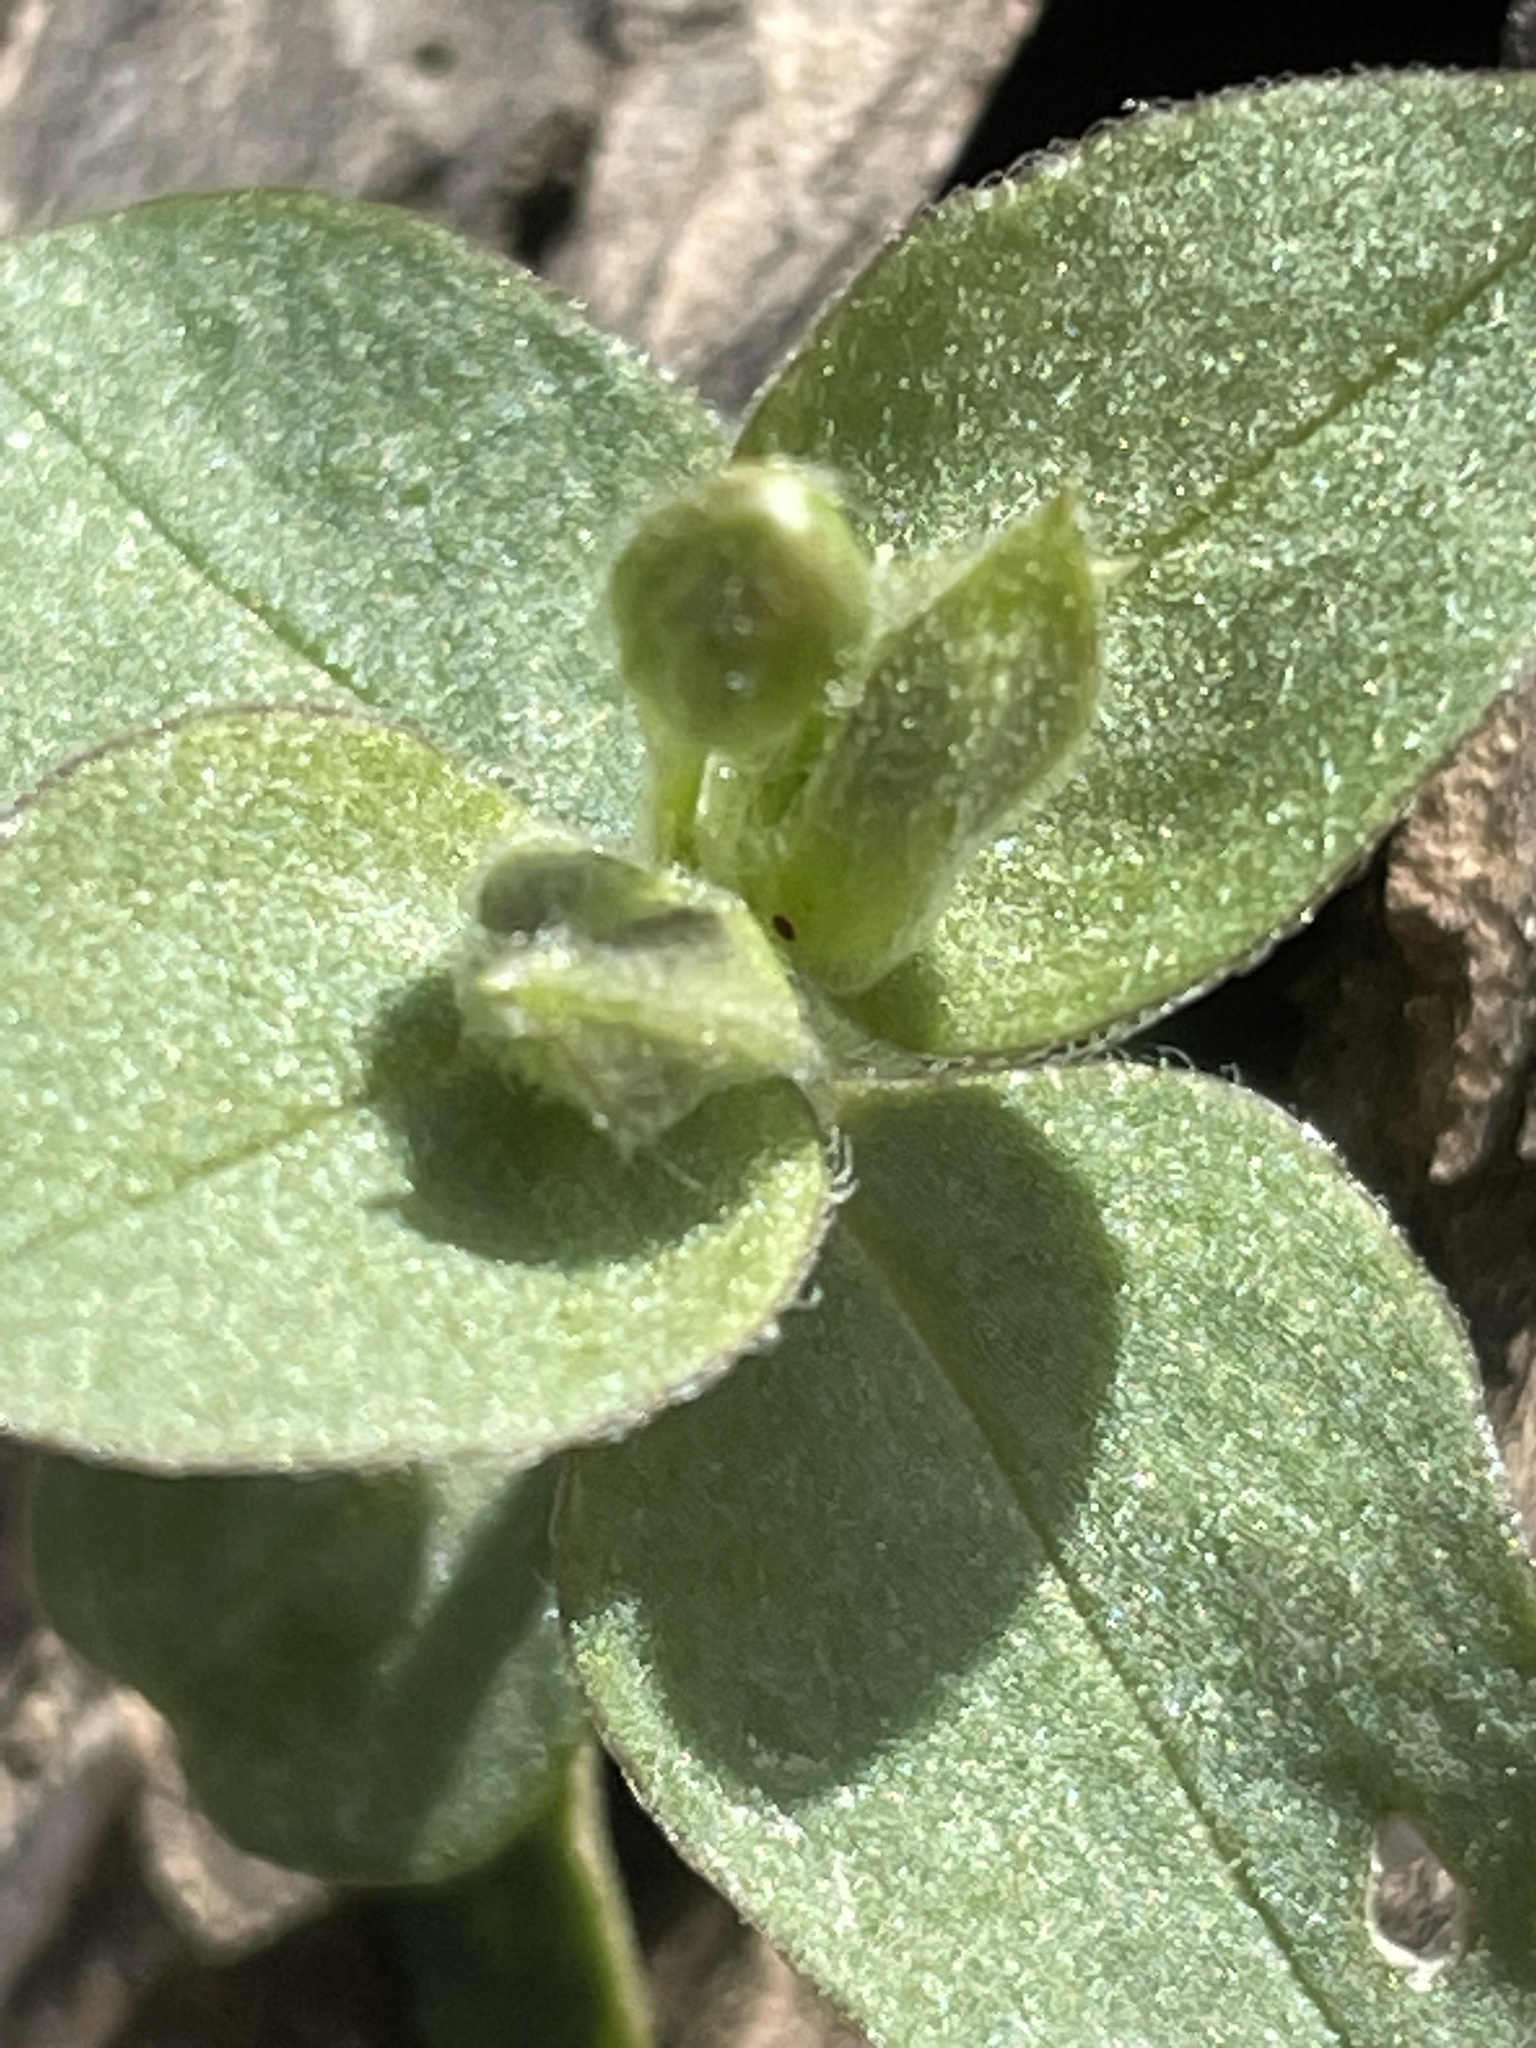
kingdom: Plantae
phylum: Tracheophyta
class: Magnoliopsida
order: Caryophyllales
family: Caryophyllaceae
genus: Stellaria
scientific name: Stellaria pubera
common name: Star chickweed
